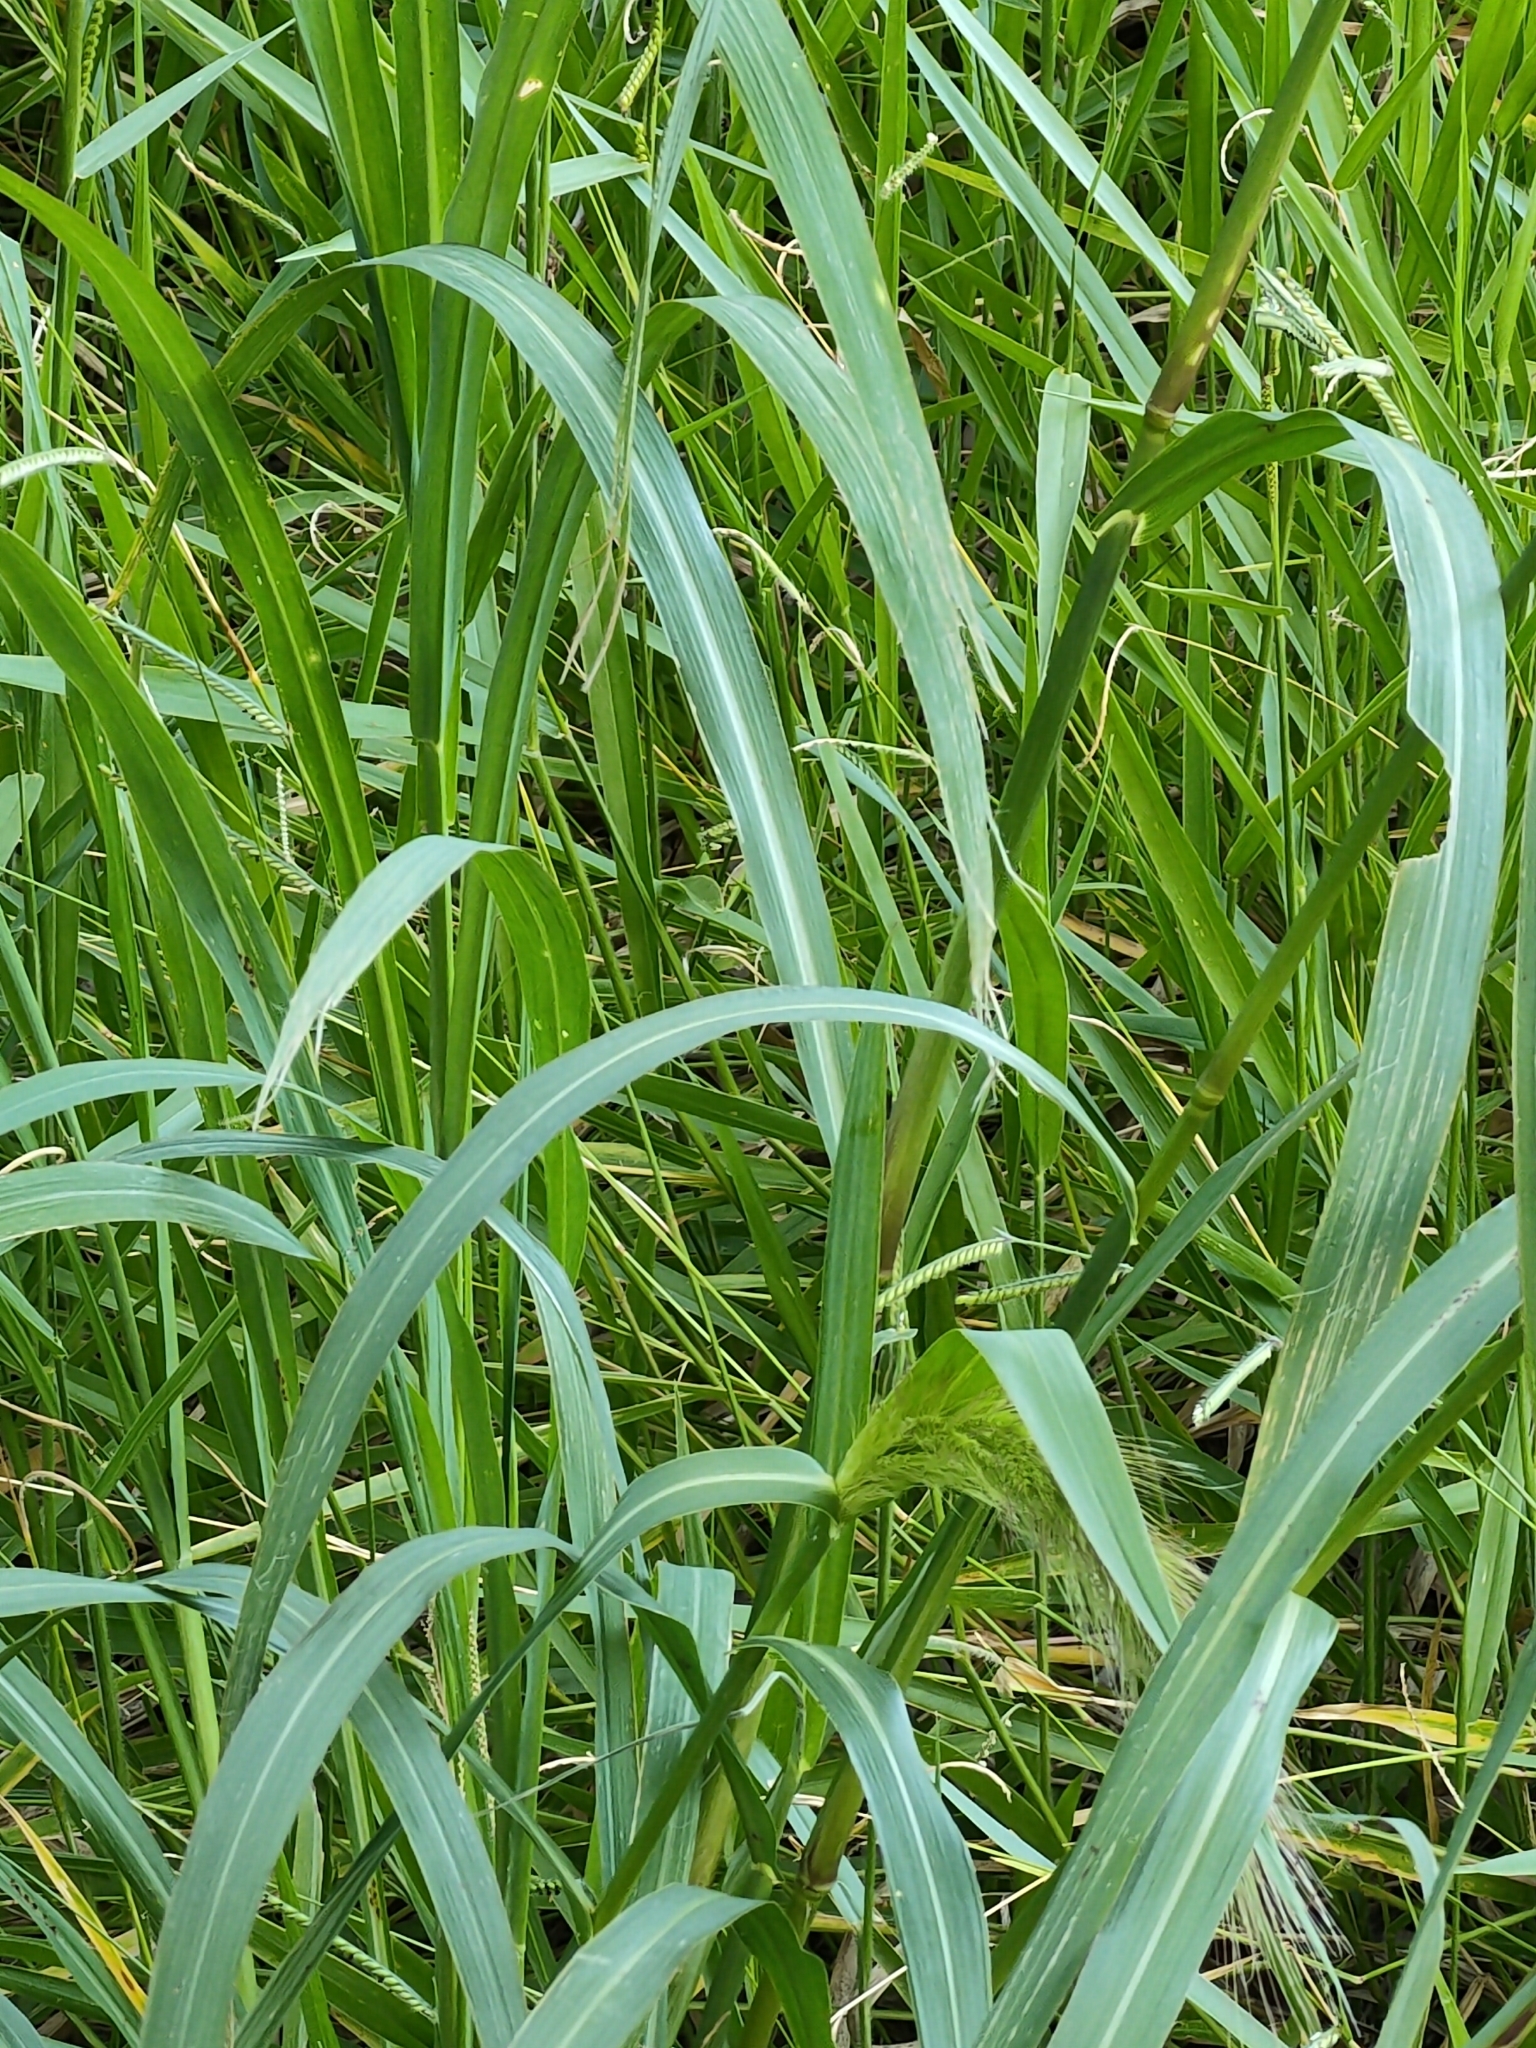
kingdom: Plantae
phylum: Tracheophyta
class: Liliopsida
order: Poales
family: Poaceae
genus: Echinochloa
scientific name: Echinochloa telmatophila
